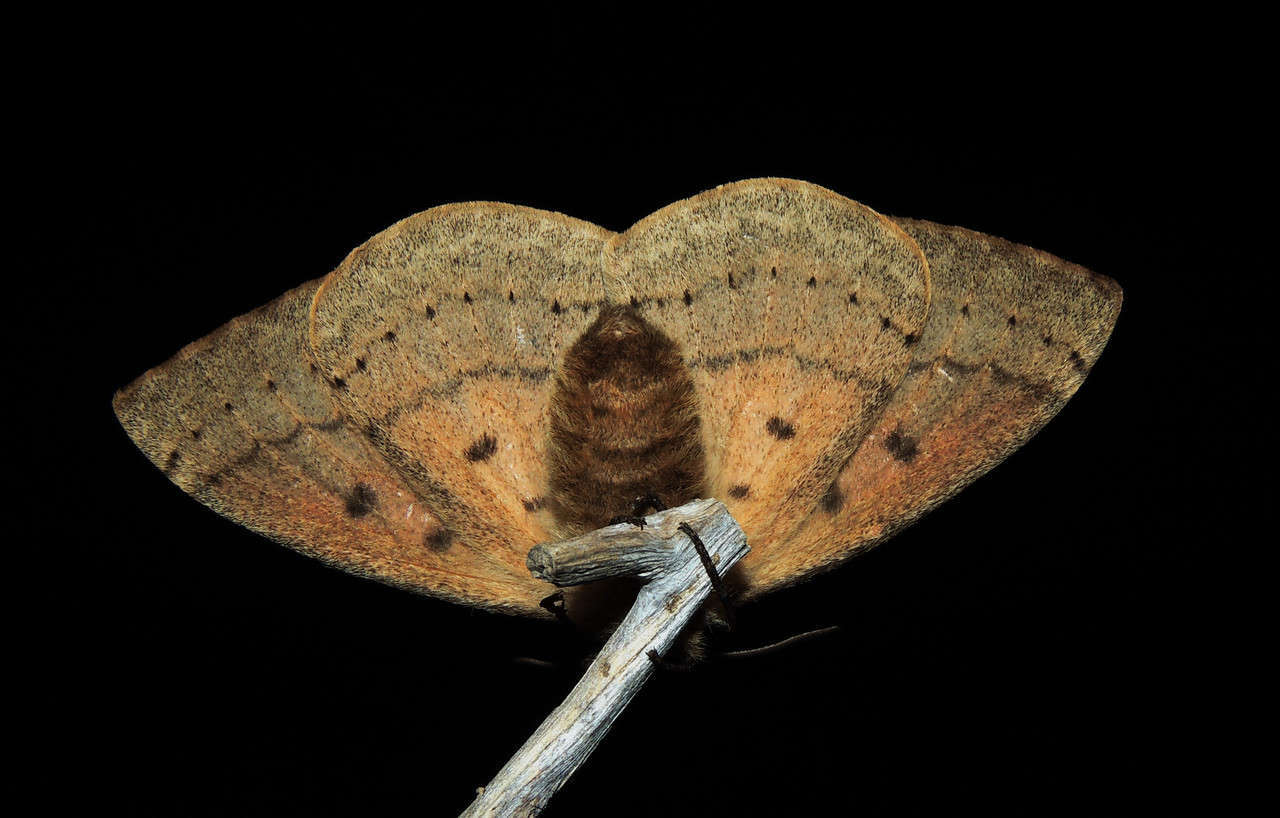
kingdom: Animalia
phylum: Arthropoda
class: Insecta
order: Lepidoptera
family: Anthelidae
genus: Anthela
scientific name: Anthela nicothoe
